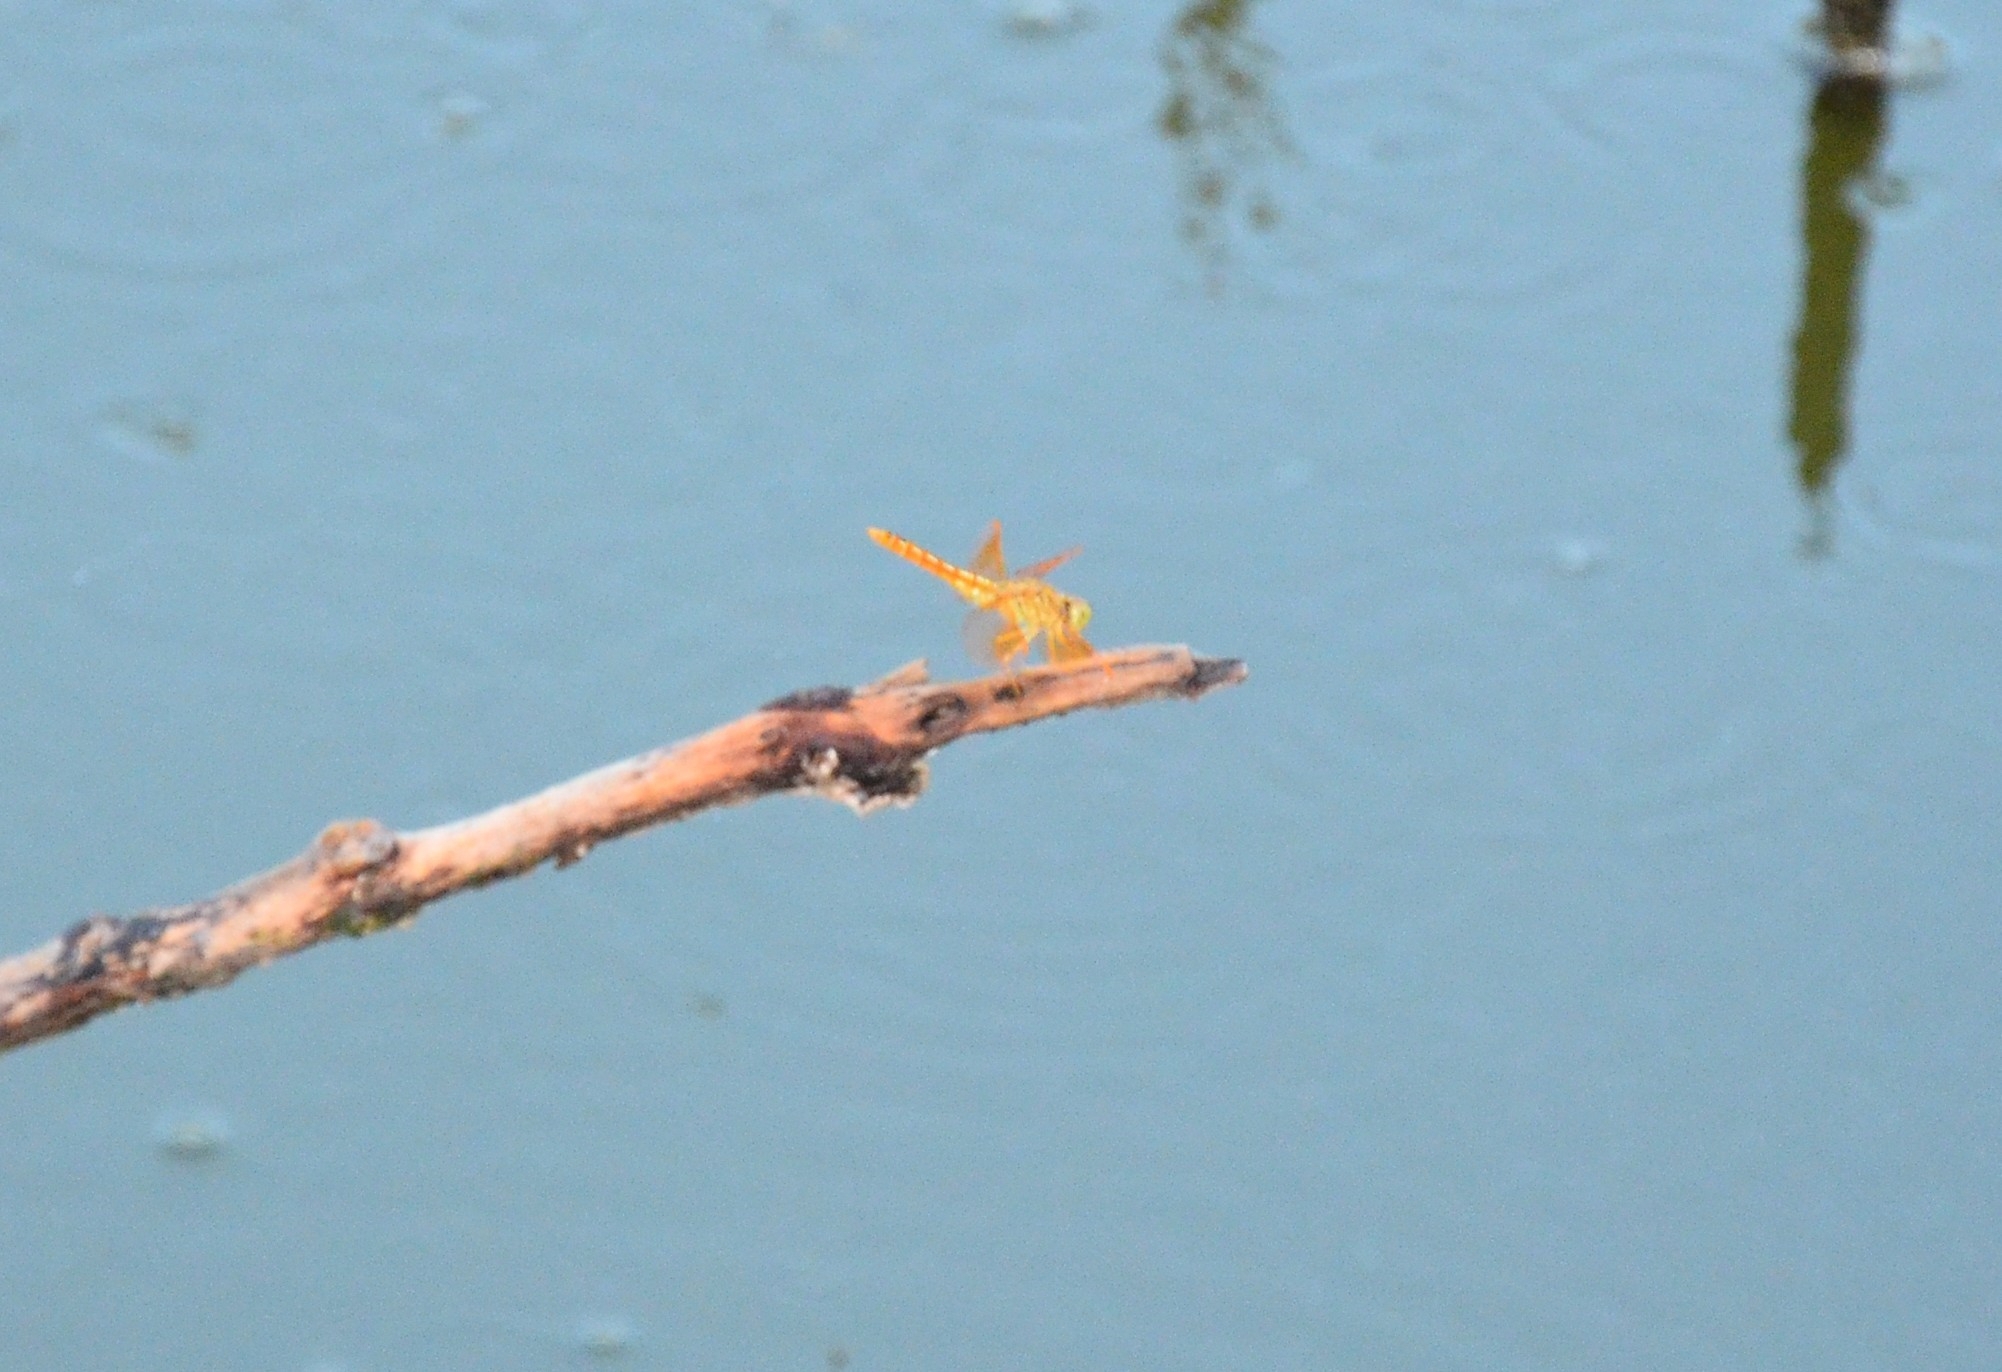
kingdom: Animalia
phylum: Arthropoda
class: Insecta
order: Odonata
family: Libellulidae
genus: Brachythemis
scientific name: Brachythemis contaminata
